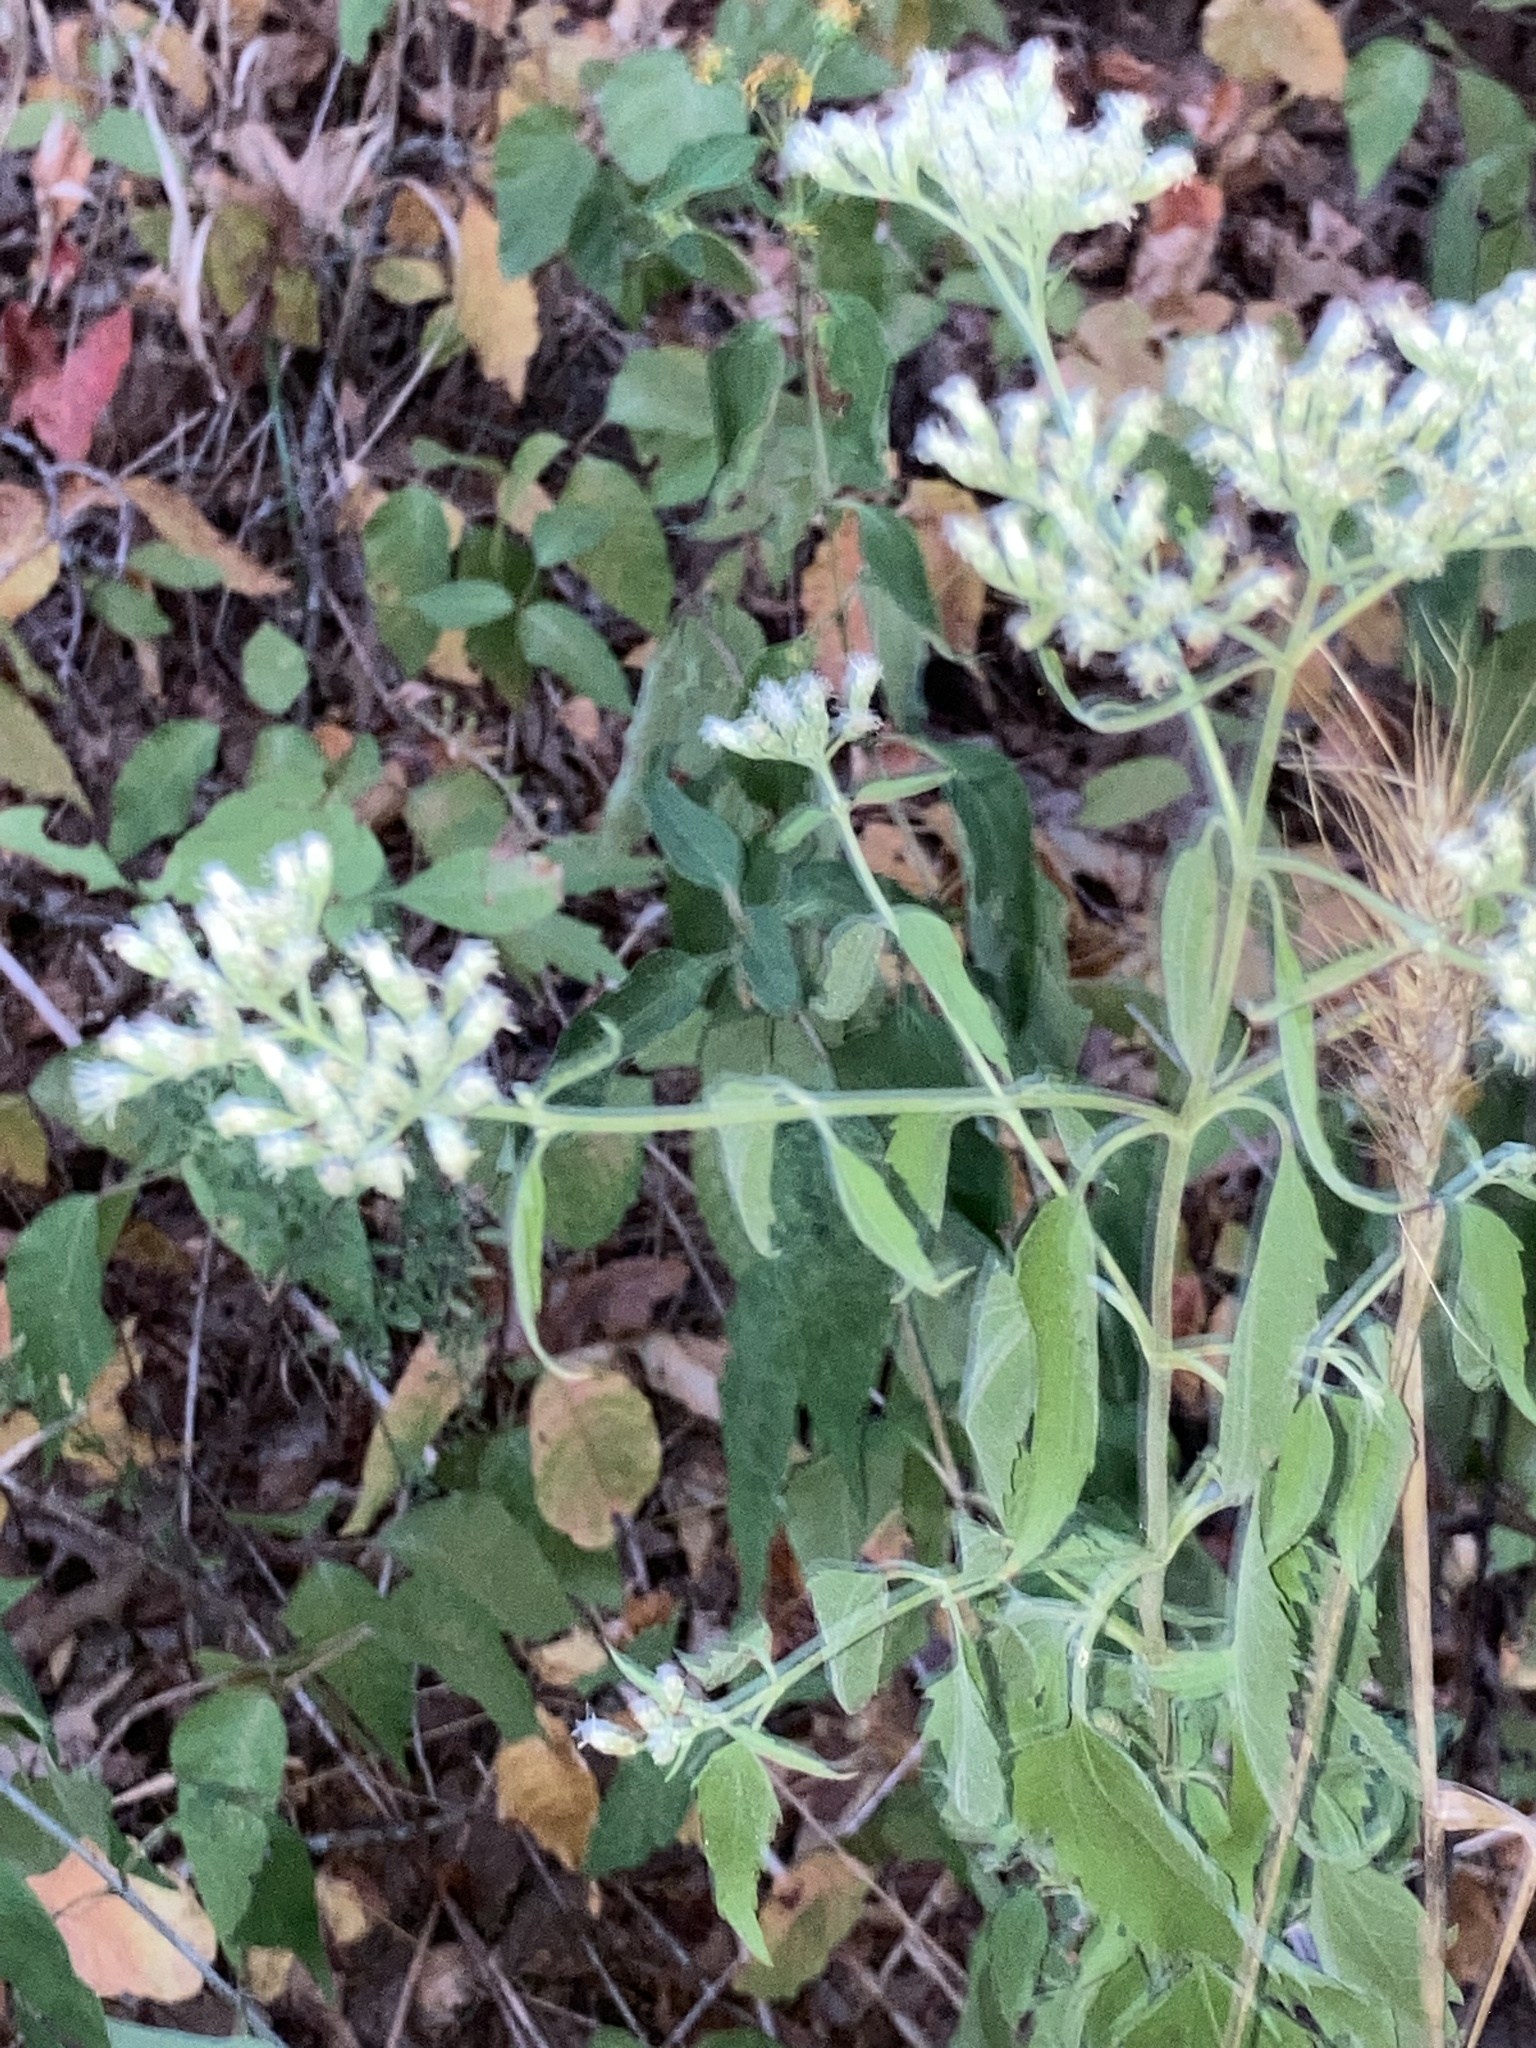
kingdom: Plantae
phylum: Tracheophyta
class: Magnoliopsida
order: Asterales
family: Asteraceae
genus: Eupatorium
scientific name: Eupatorium serotinum
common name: Late boneset
